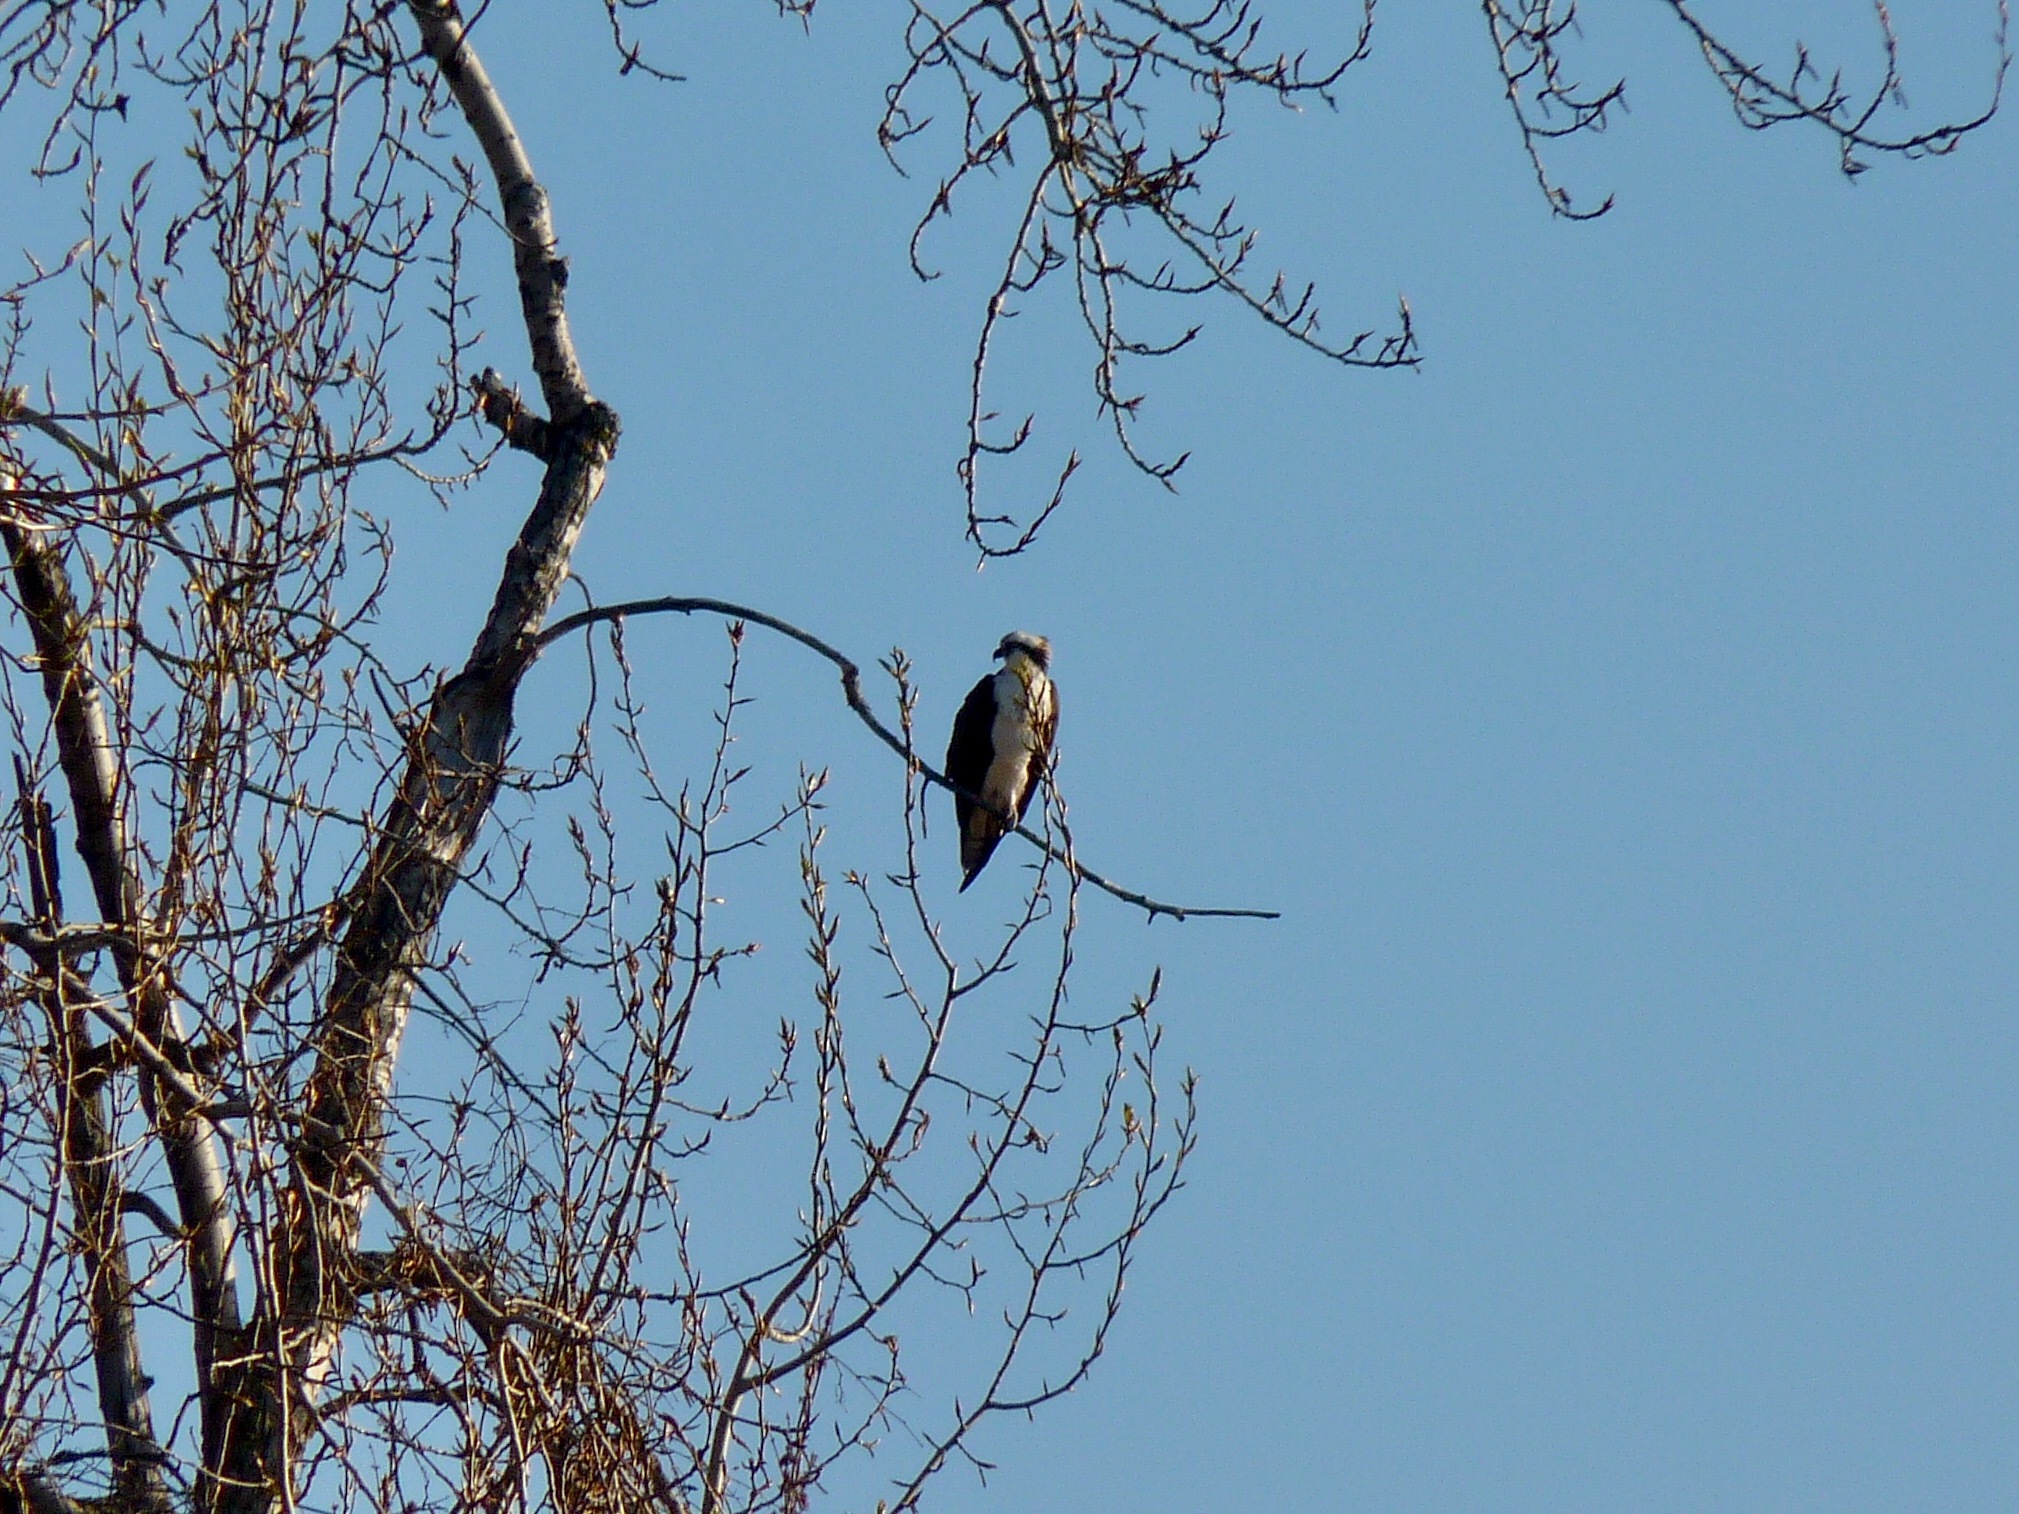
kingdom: Animalia
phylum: Chordata
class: Aves
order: Accipitriformes
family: Pandionidae
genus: Pandion
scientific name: Pandion haliaetus
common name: Osprey
